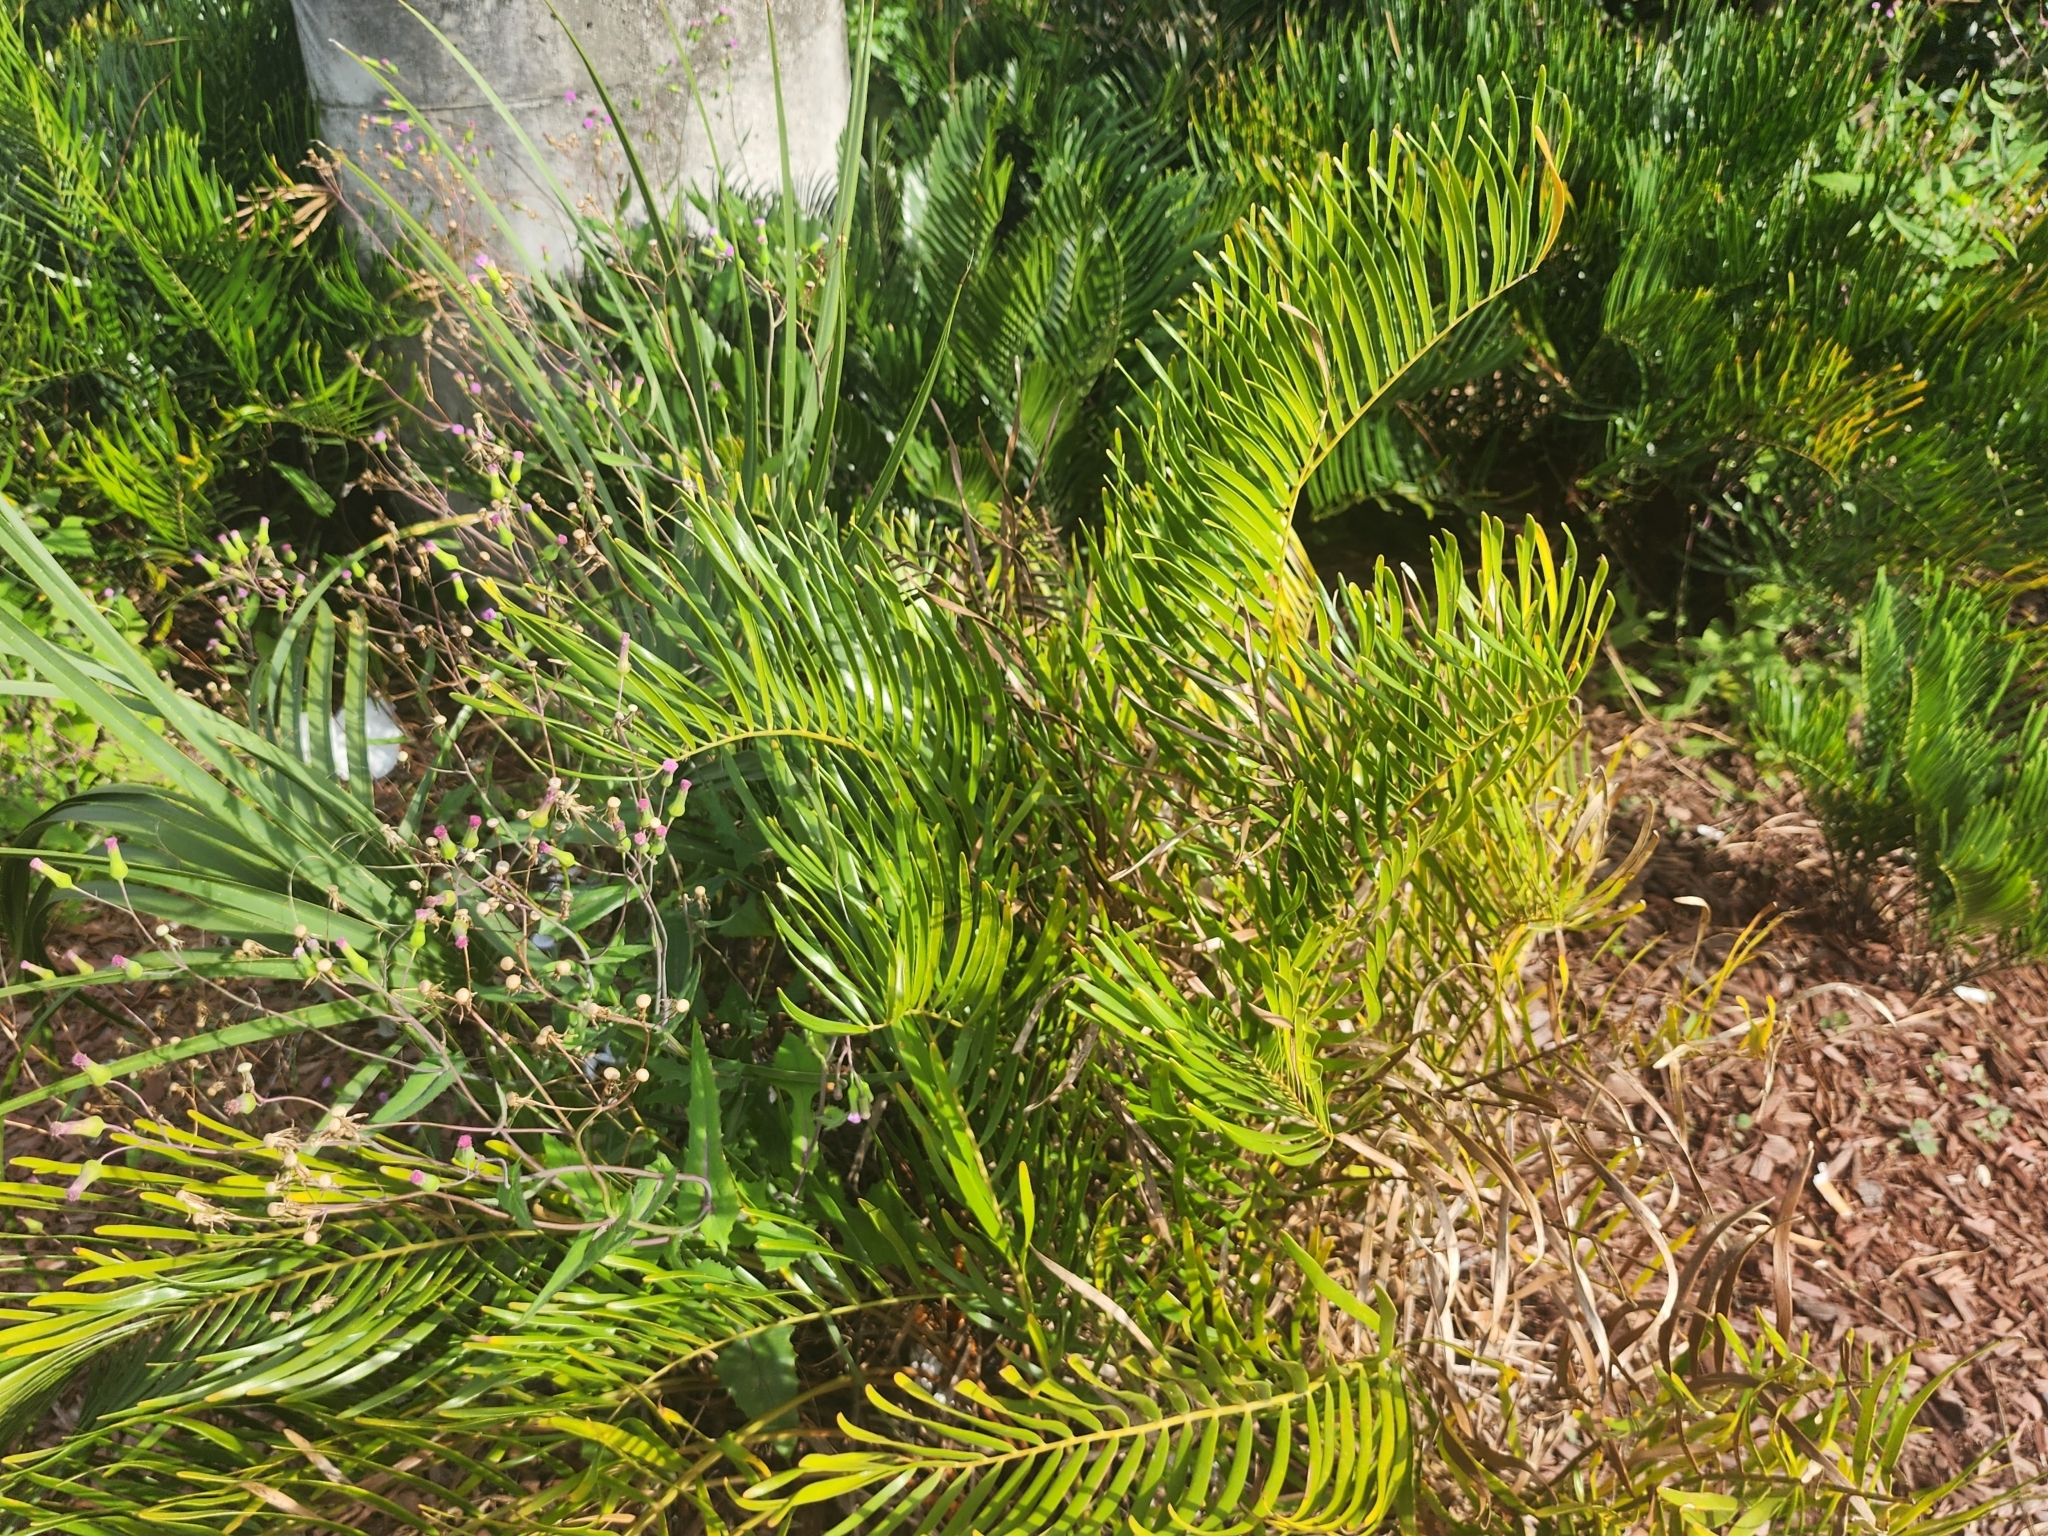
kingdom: Plantae
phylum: Tracheophyta
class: Cycadopsida
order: Cycadales
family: Zamiaceae
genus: Zamia
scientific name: Zamia integrifolia
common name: Florida arrowroot
